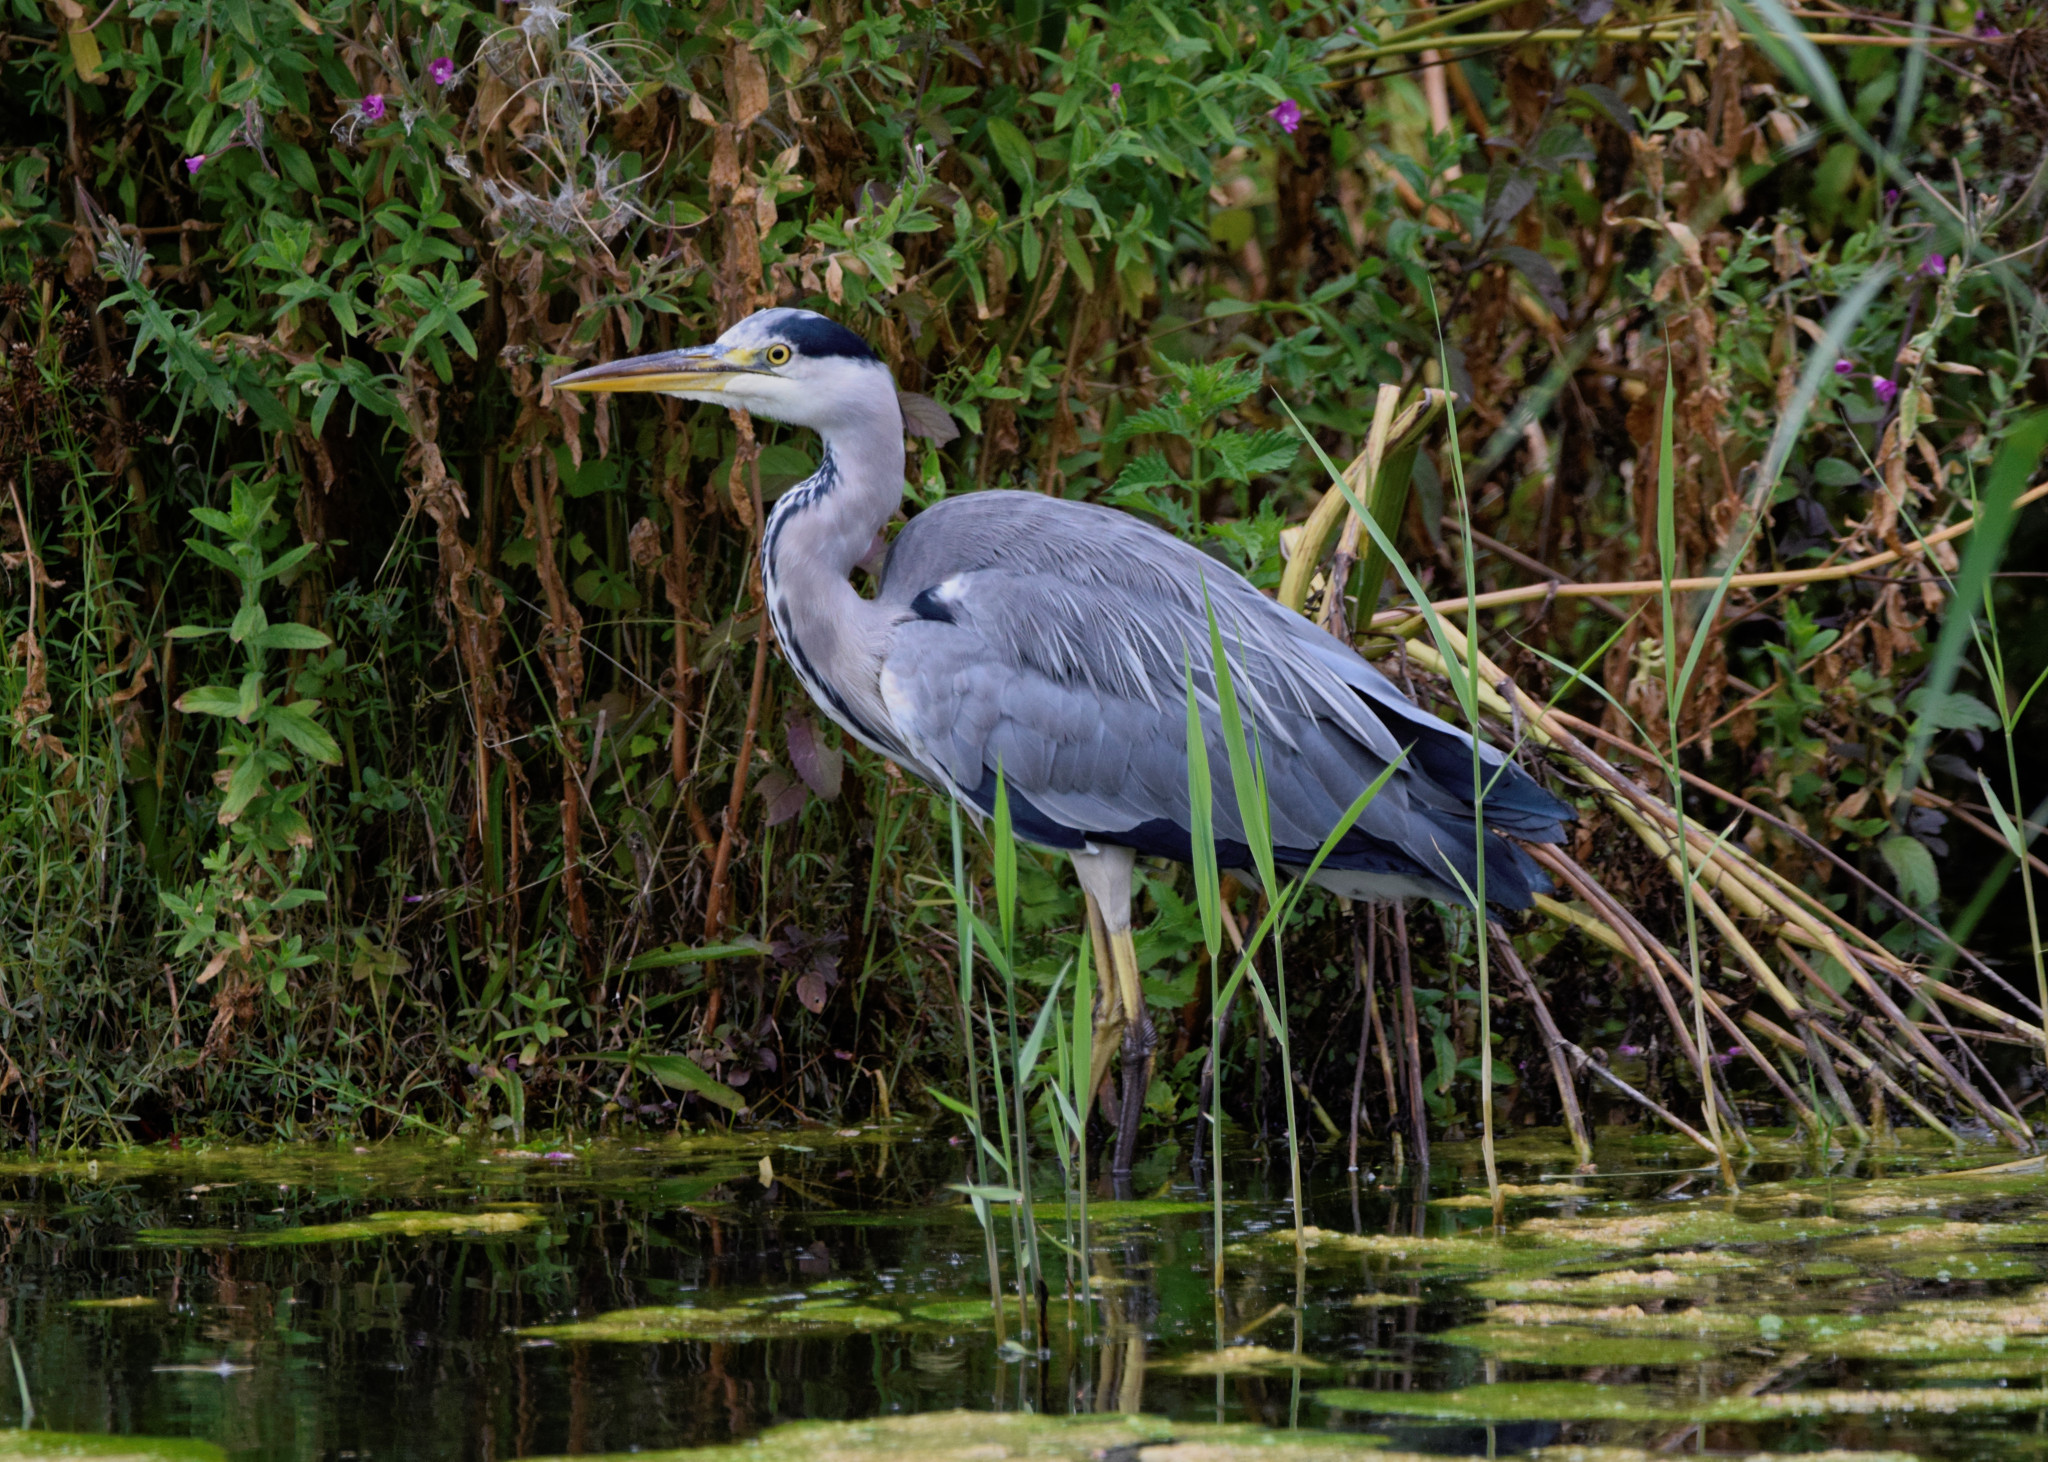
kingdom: Animalia
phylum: Chordata
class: Aves
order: Pelecaniformes
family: Ardeidae
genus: Ardea
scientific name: Ardea cinerea
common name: Grey heron
